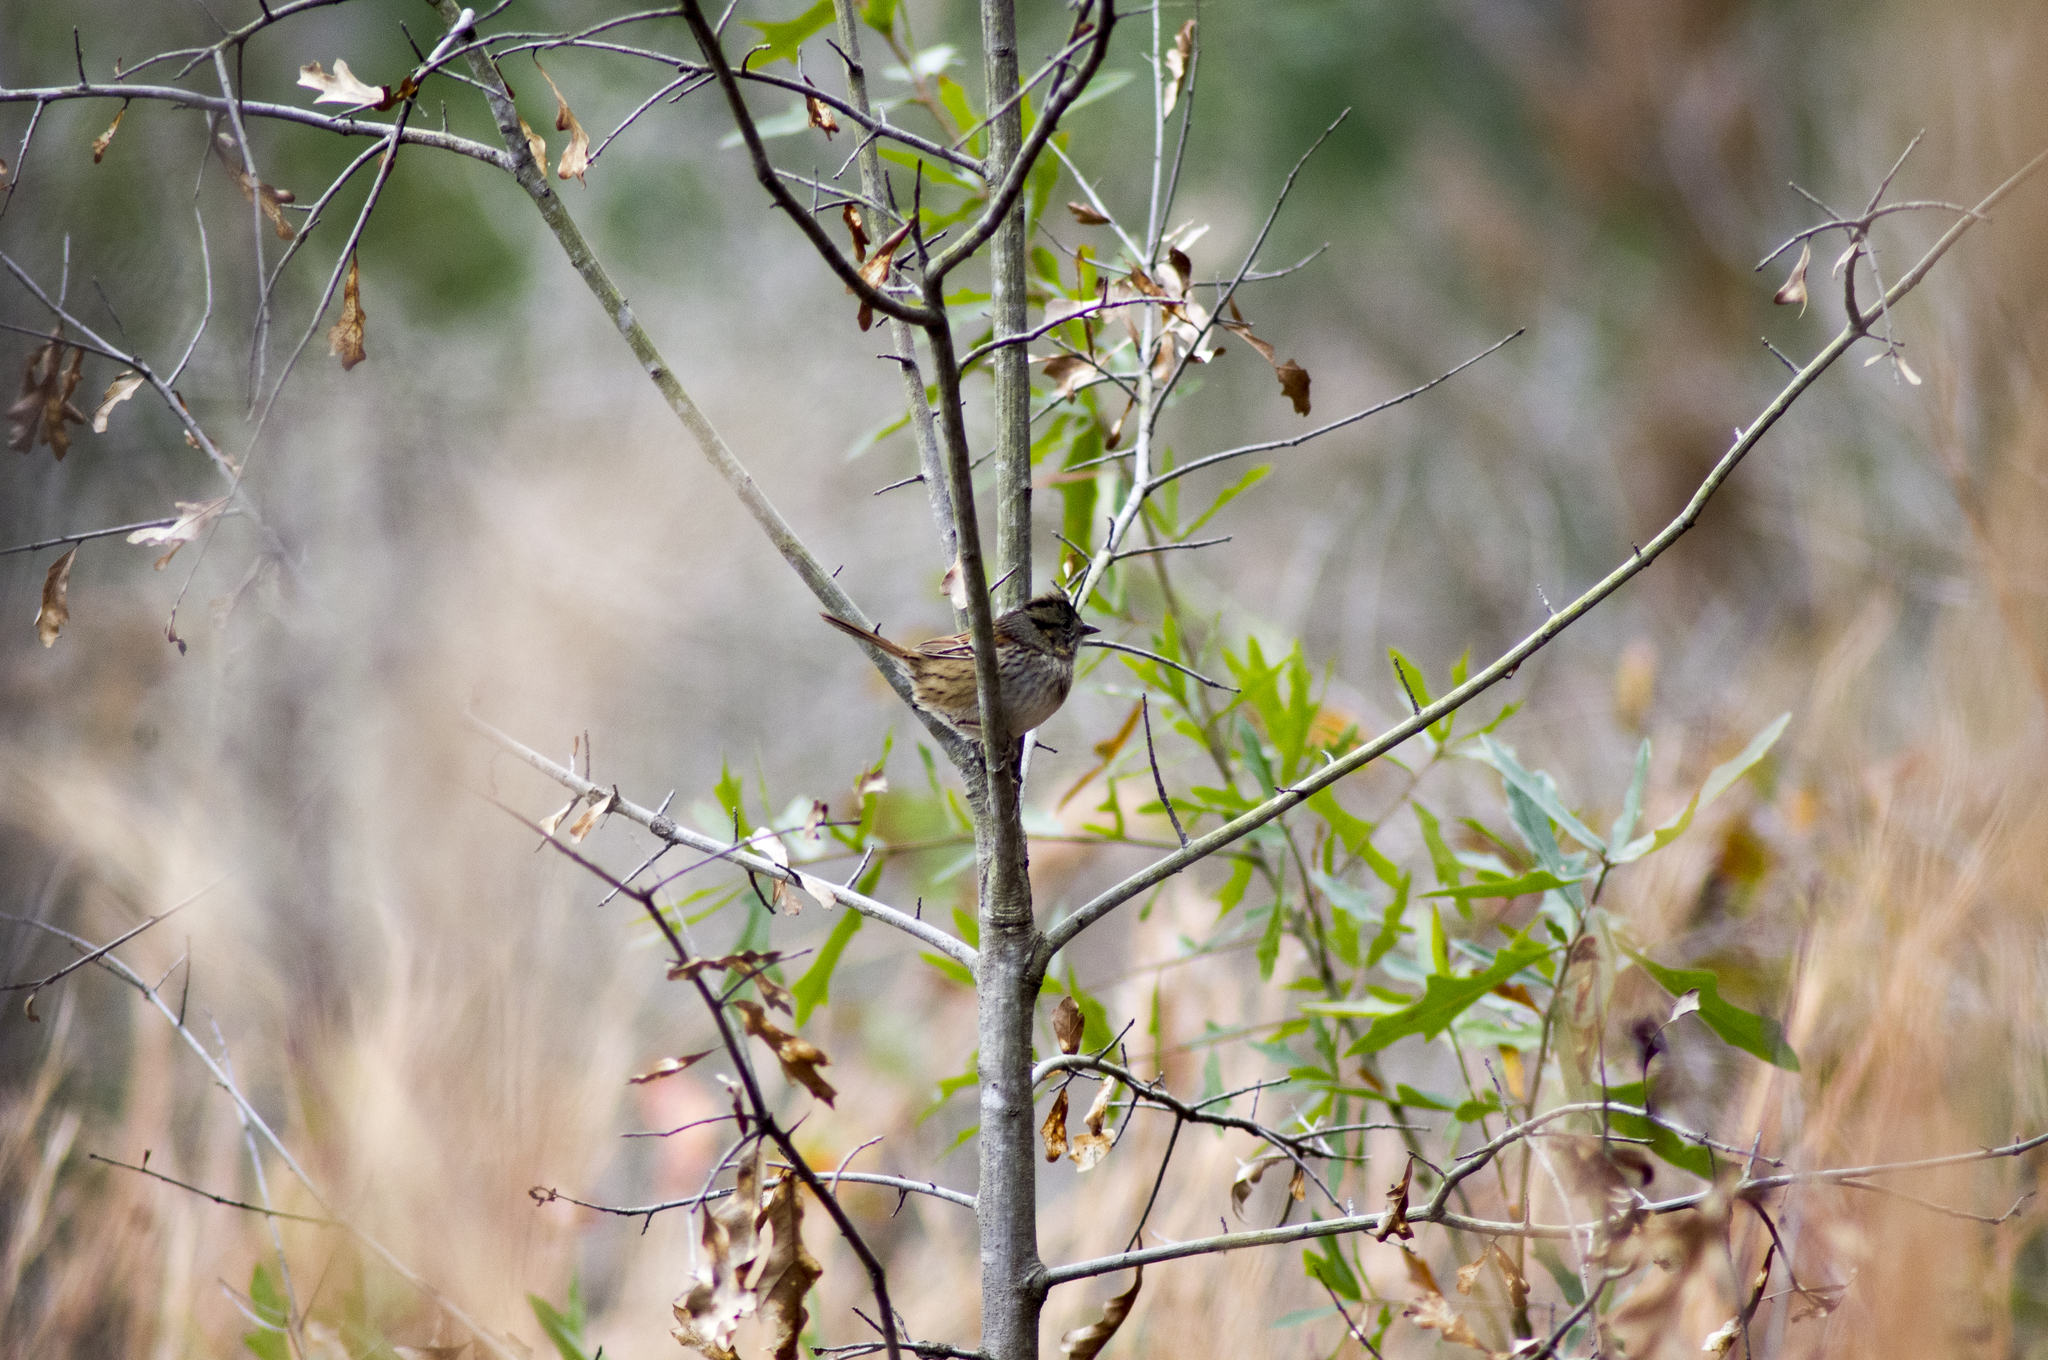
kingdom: Animalia
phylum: Chordata
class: Aves
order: Passeriformes
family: Passerellidae
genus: Melospiza
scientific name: Melospiza georgiana
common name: Swamp sparrow
